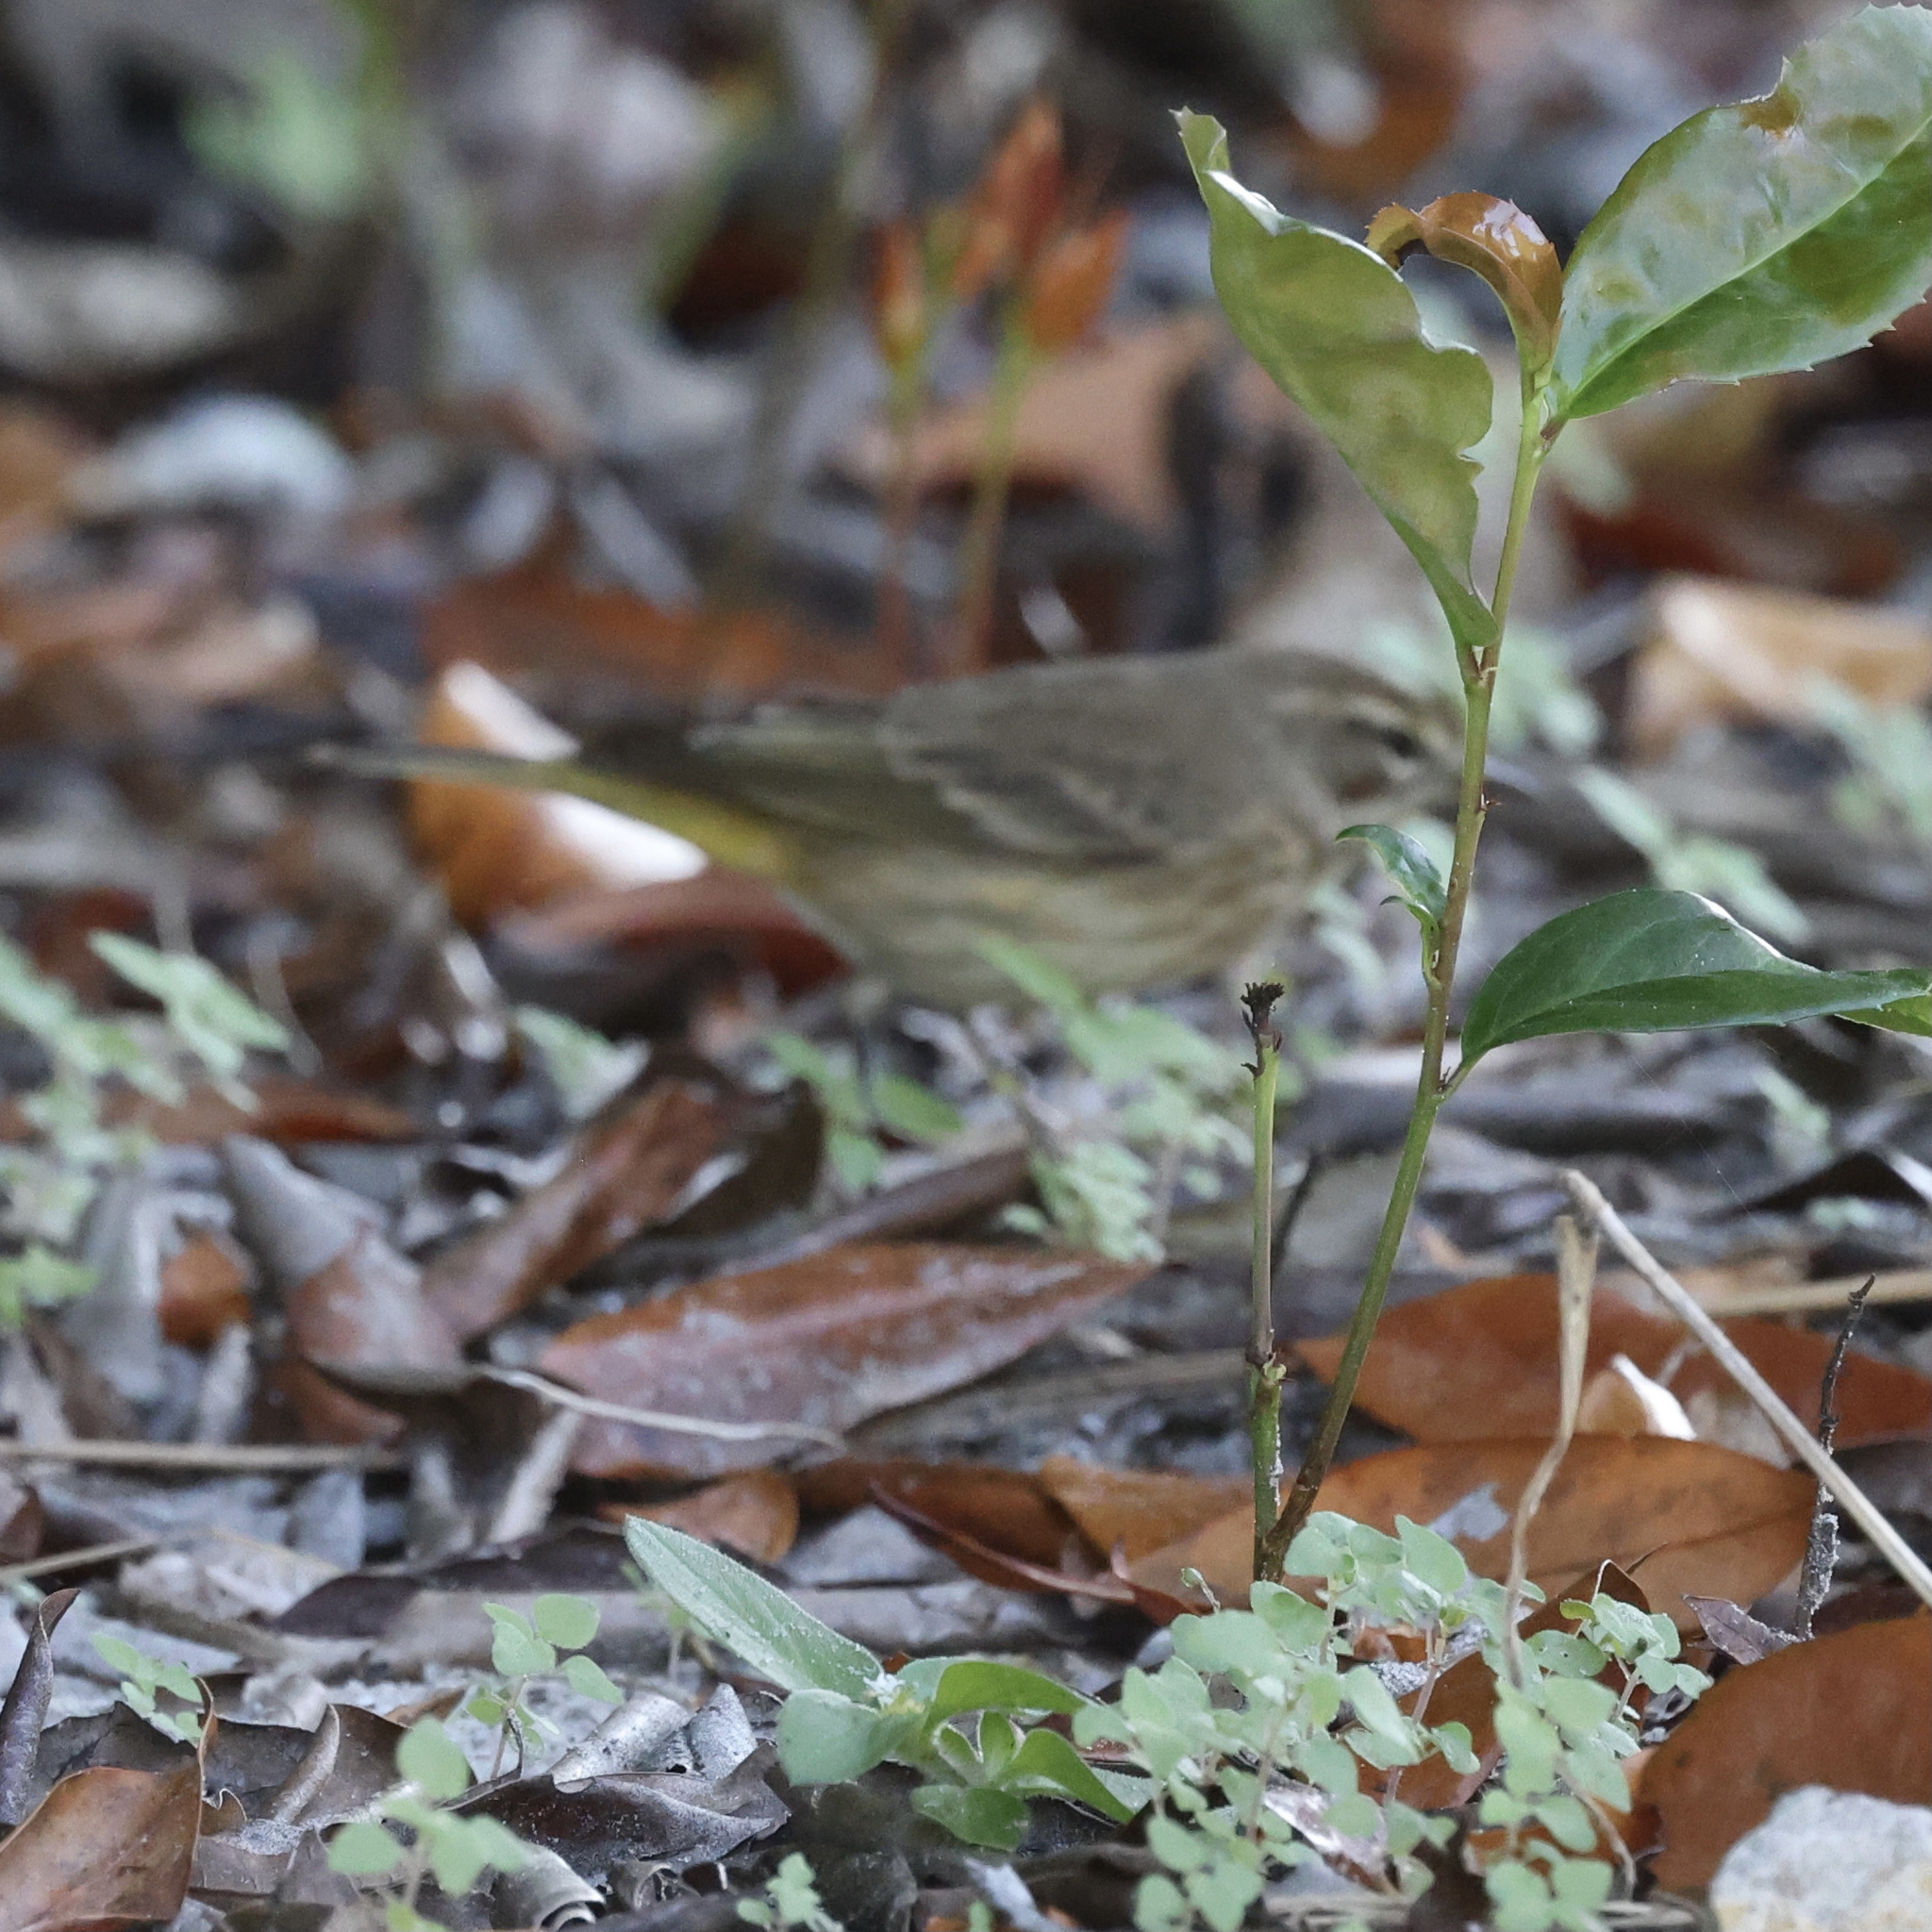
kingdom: Animalia
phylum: Chordata
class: Aves
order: Passeriformes
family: Parulidae
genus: Setophaga
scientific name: Setophaga palmarum
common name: Palm warbler
